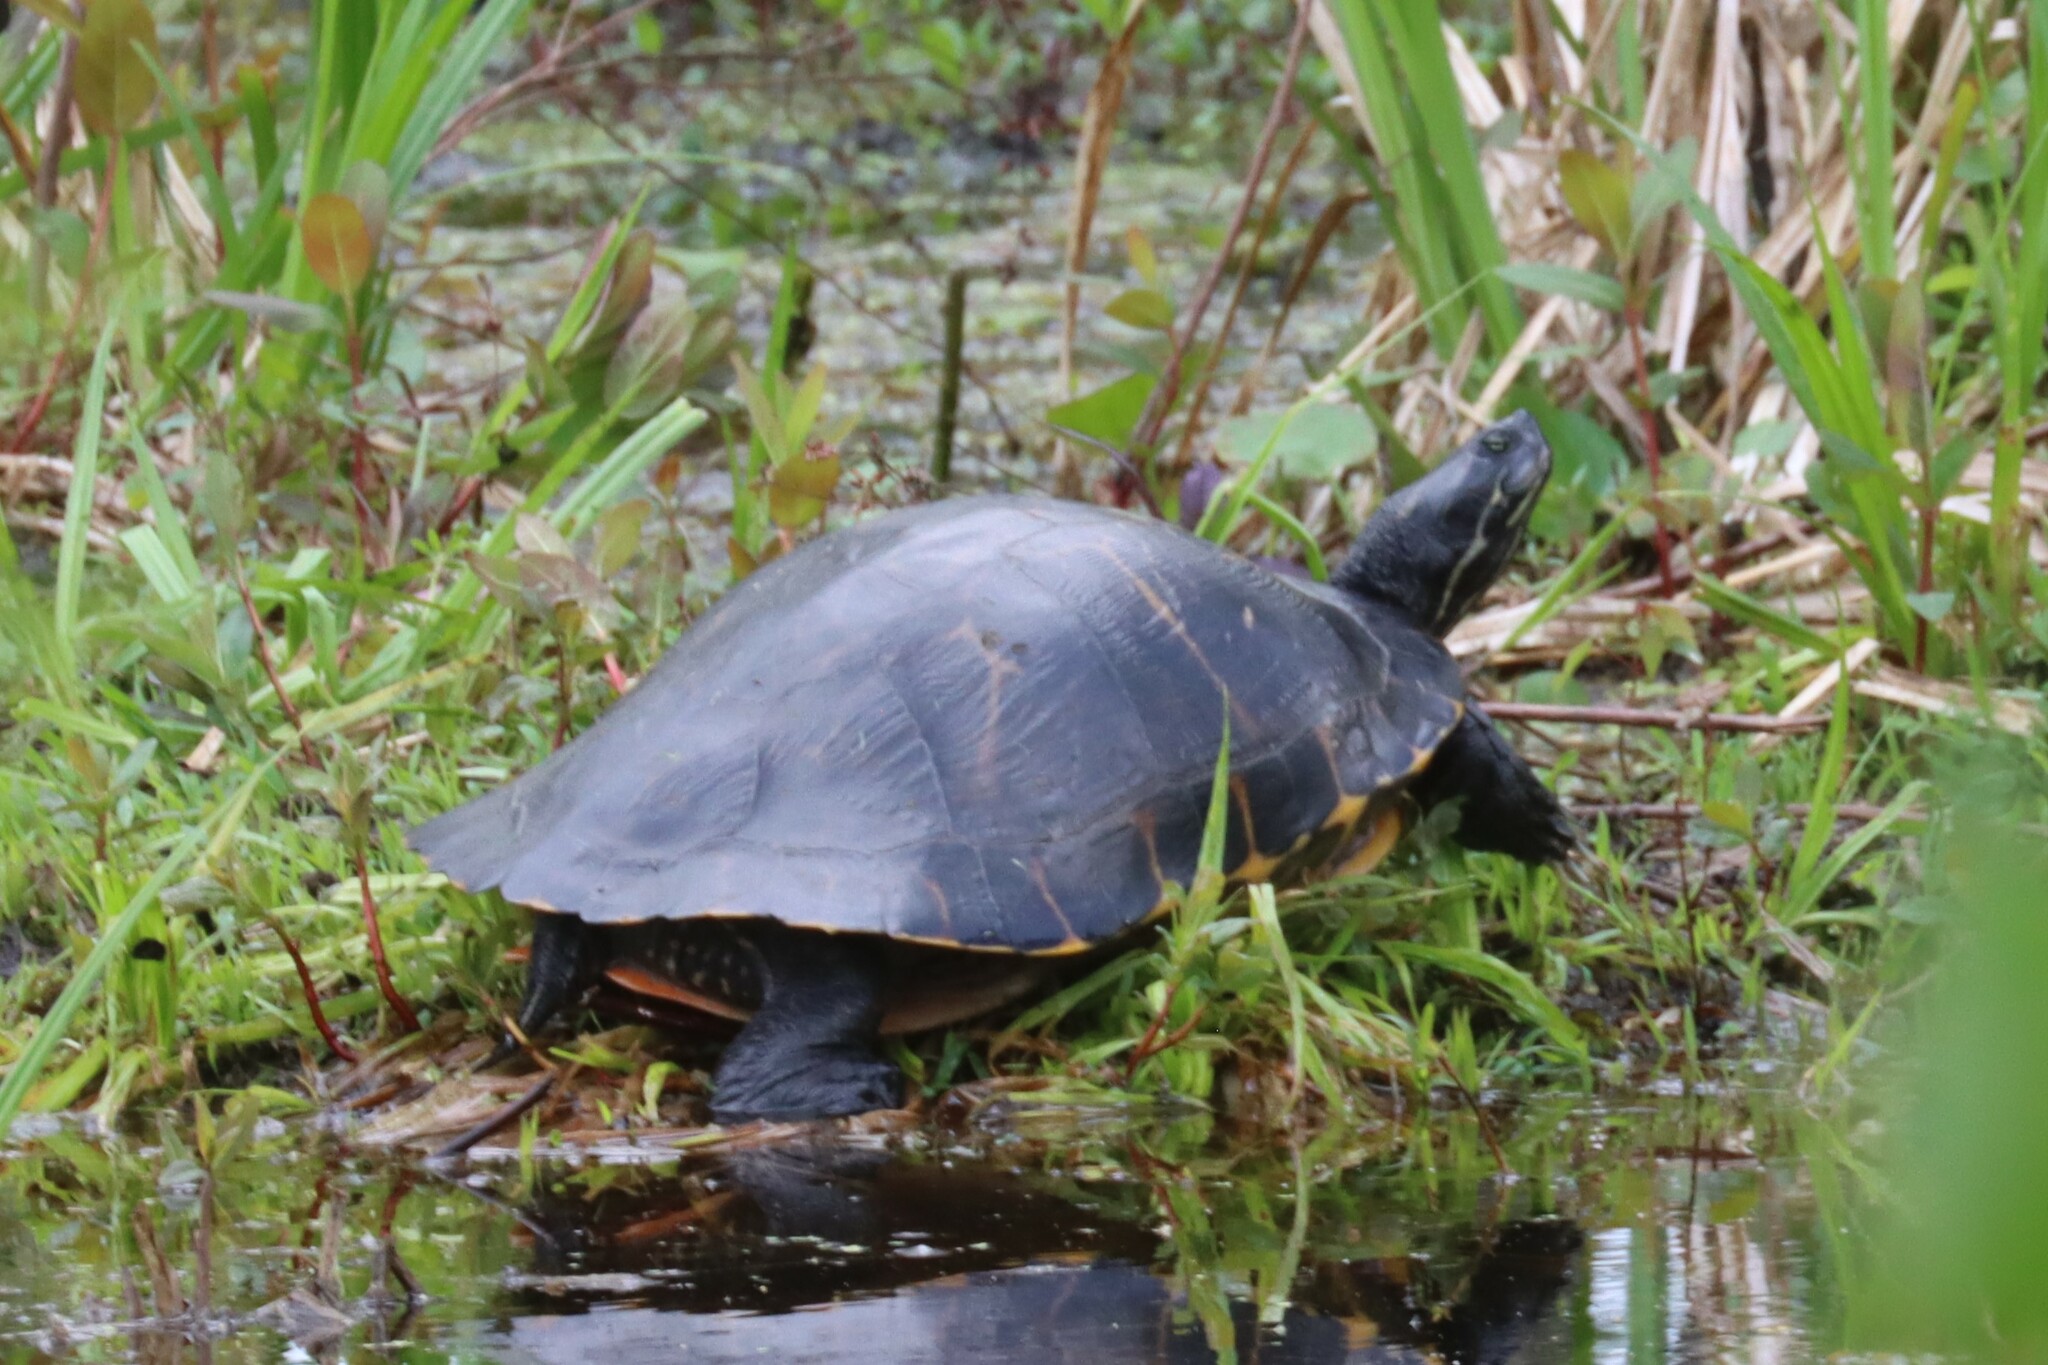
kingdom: Animalia
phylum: Chordata
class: Testudines
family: Emydidae
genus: Pseudemys
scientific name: Pseudemys concinna
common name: Eastern river cooter
